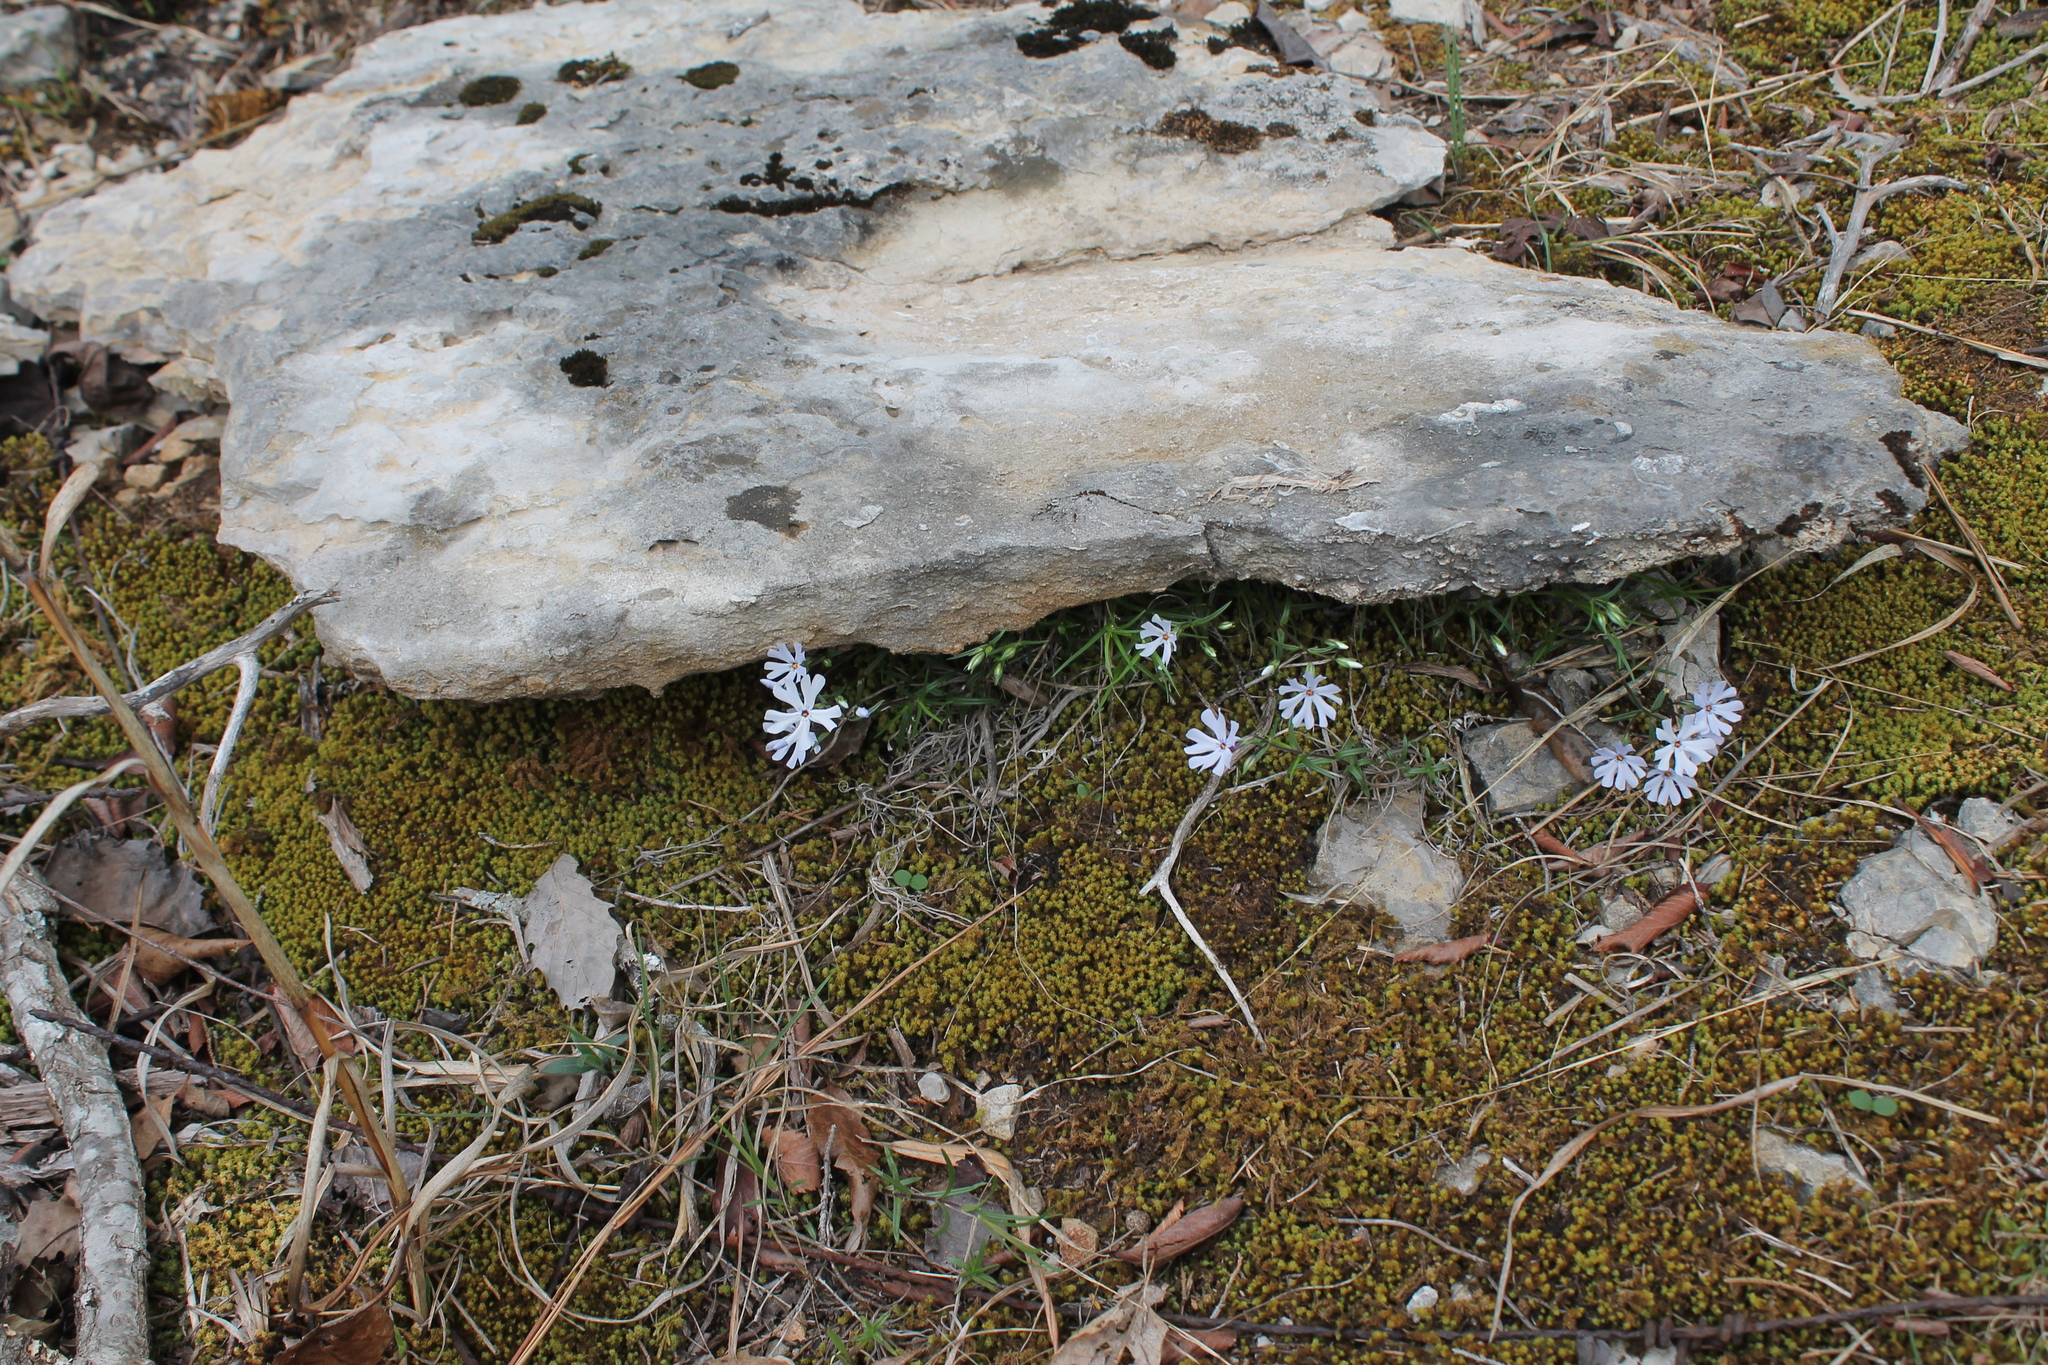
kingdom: Plantae
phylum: Tracheophyta
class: Magnoliopsida
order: Ericales
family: Polemoniaceae
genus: Phlox
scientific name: Phlox bifida
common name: Sand phlox
